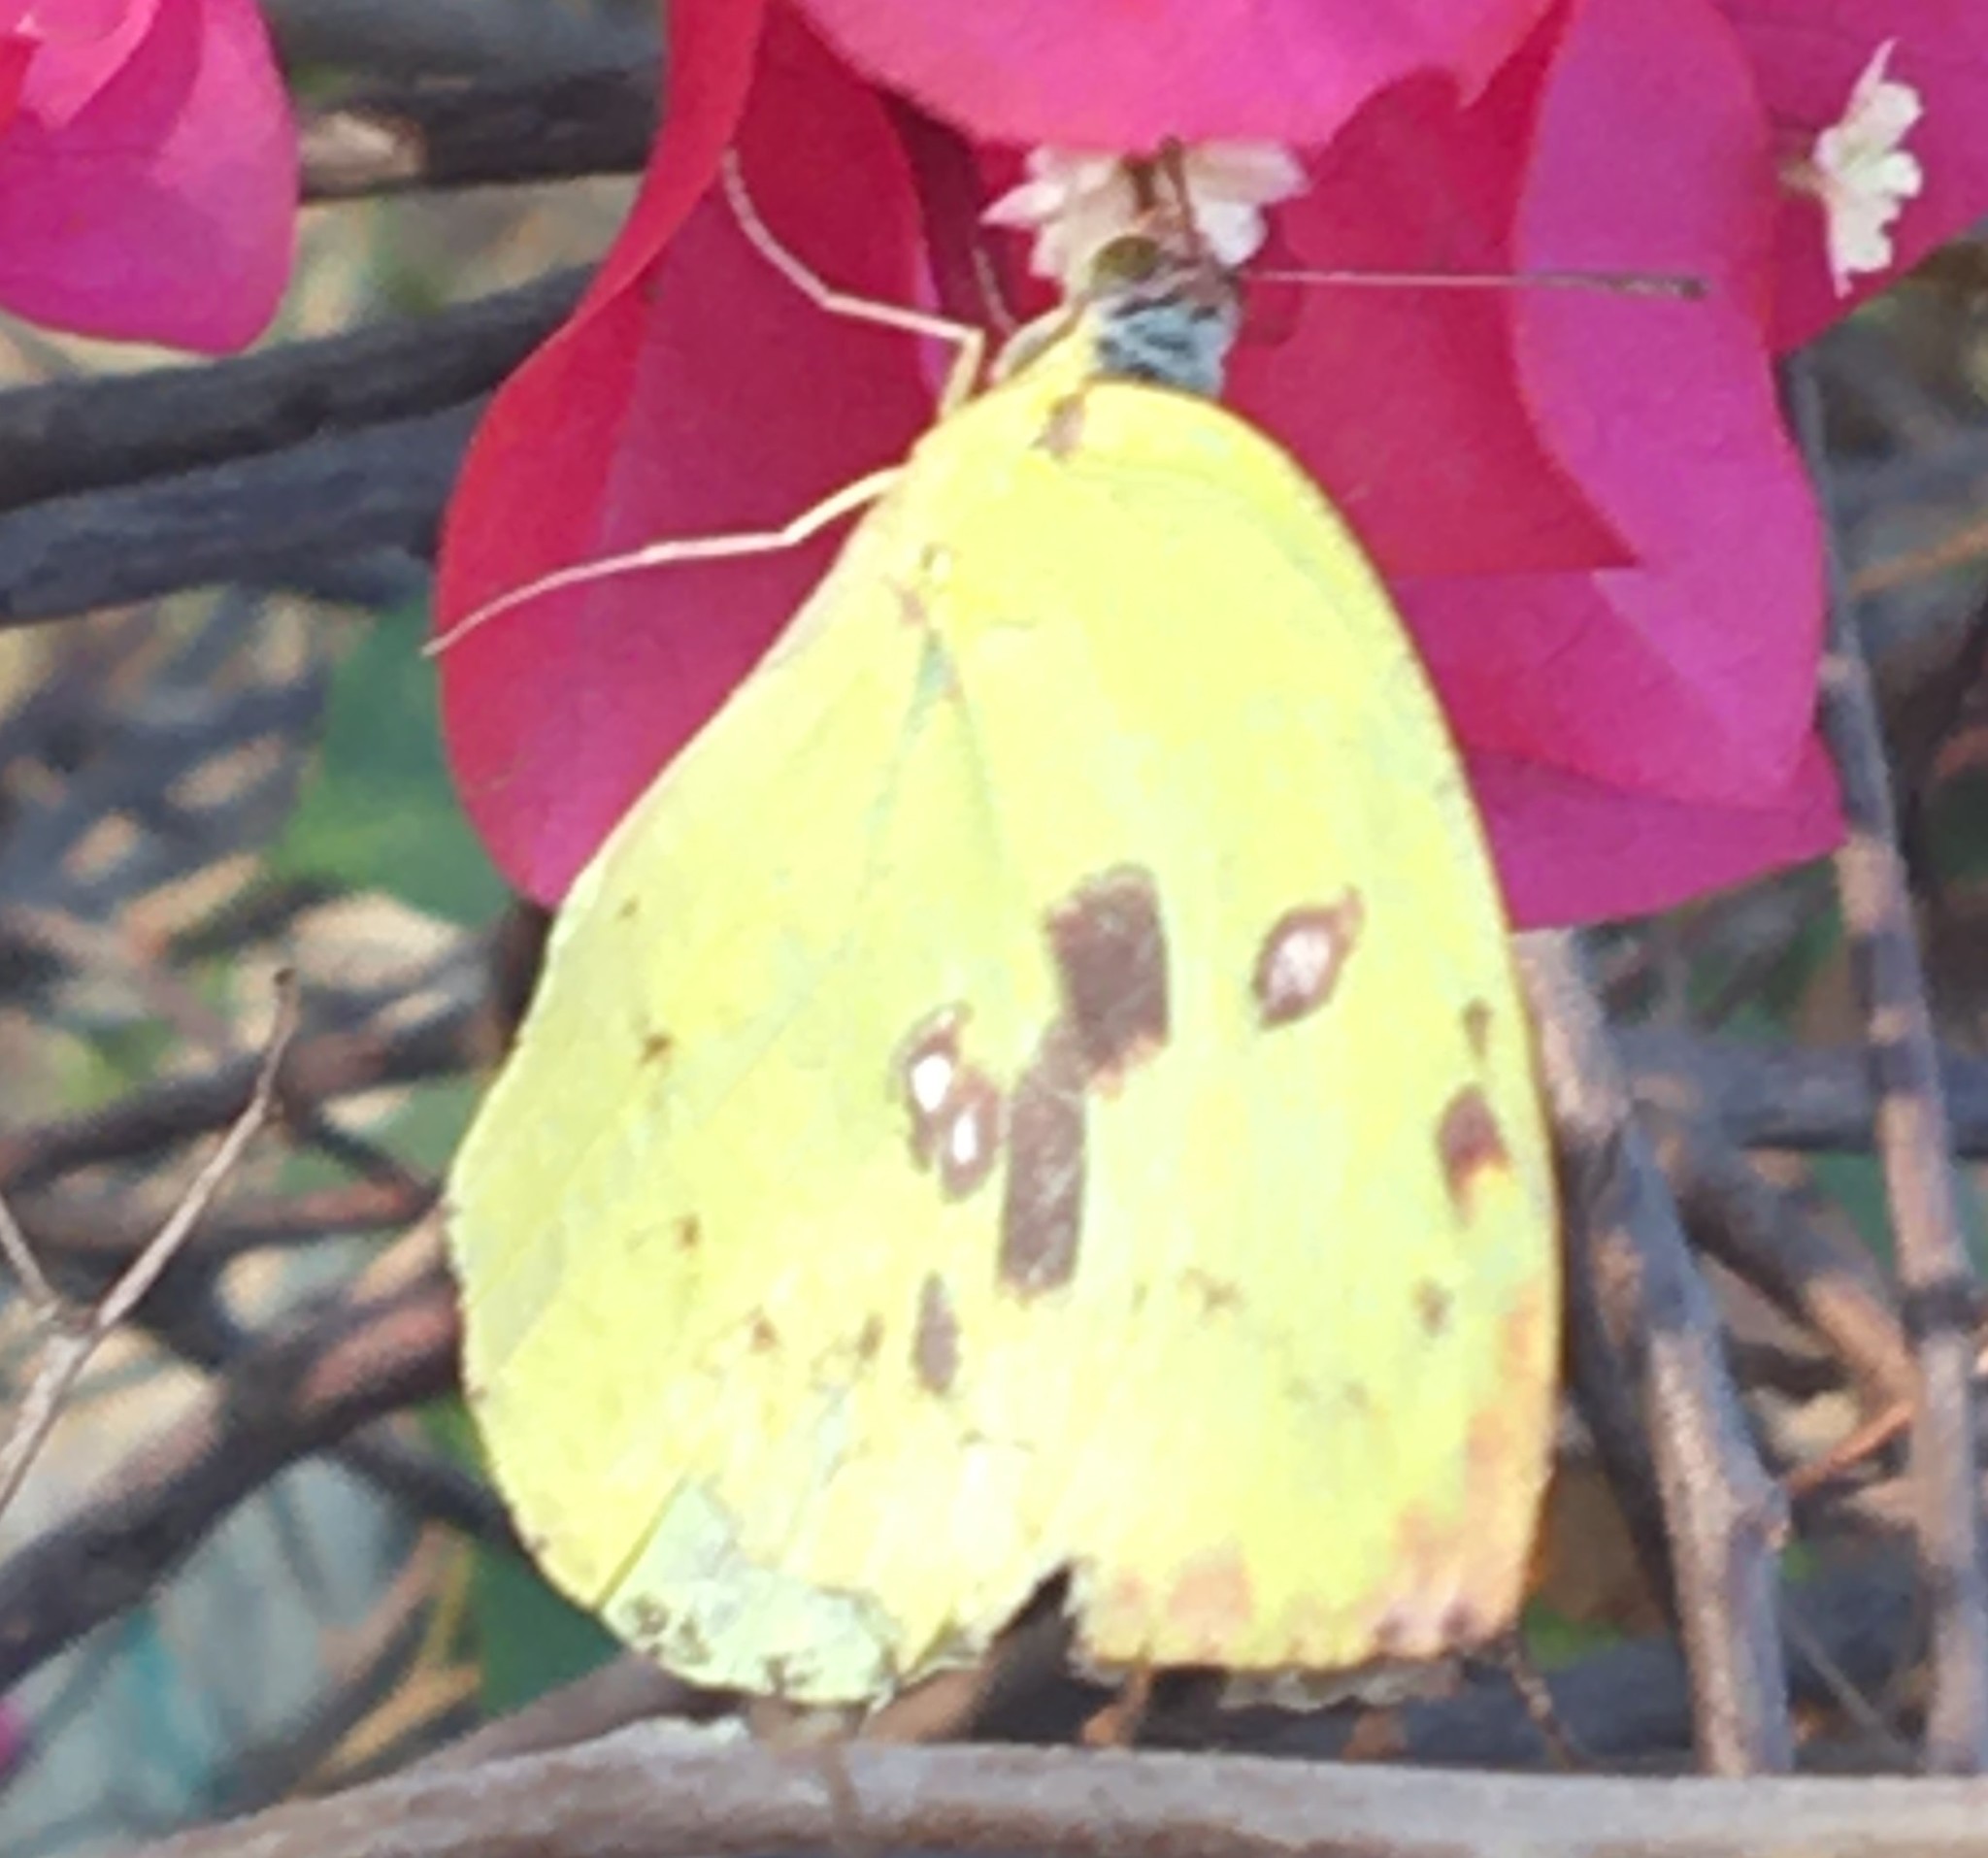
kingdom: Animalia
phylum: Arthropoda
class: Insecta
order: Lepidoptera
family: Pieridae
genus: Catopsilia
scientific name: Catopsilia pomona
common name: Common emigrant
